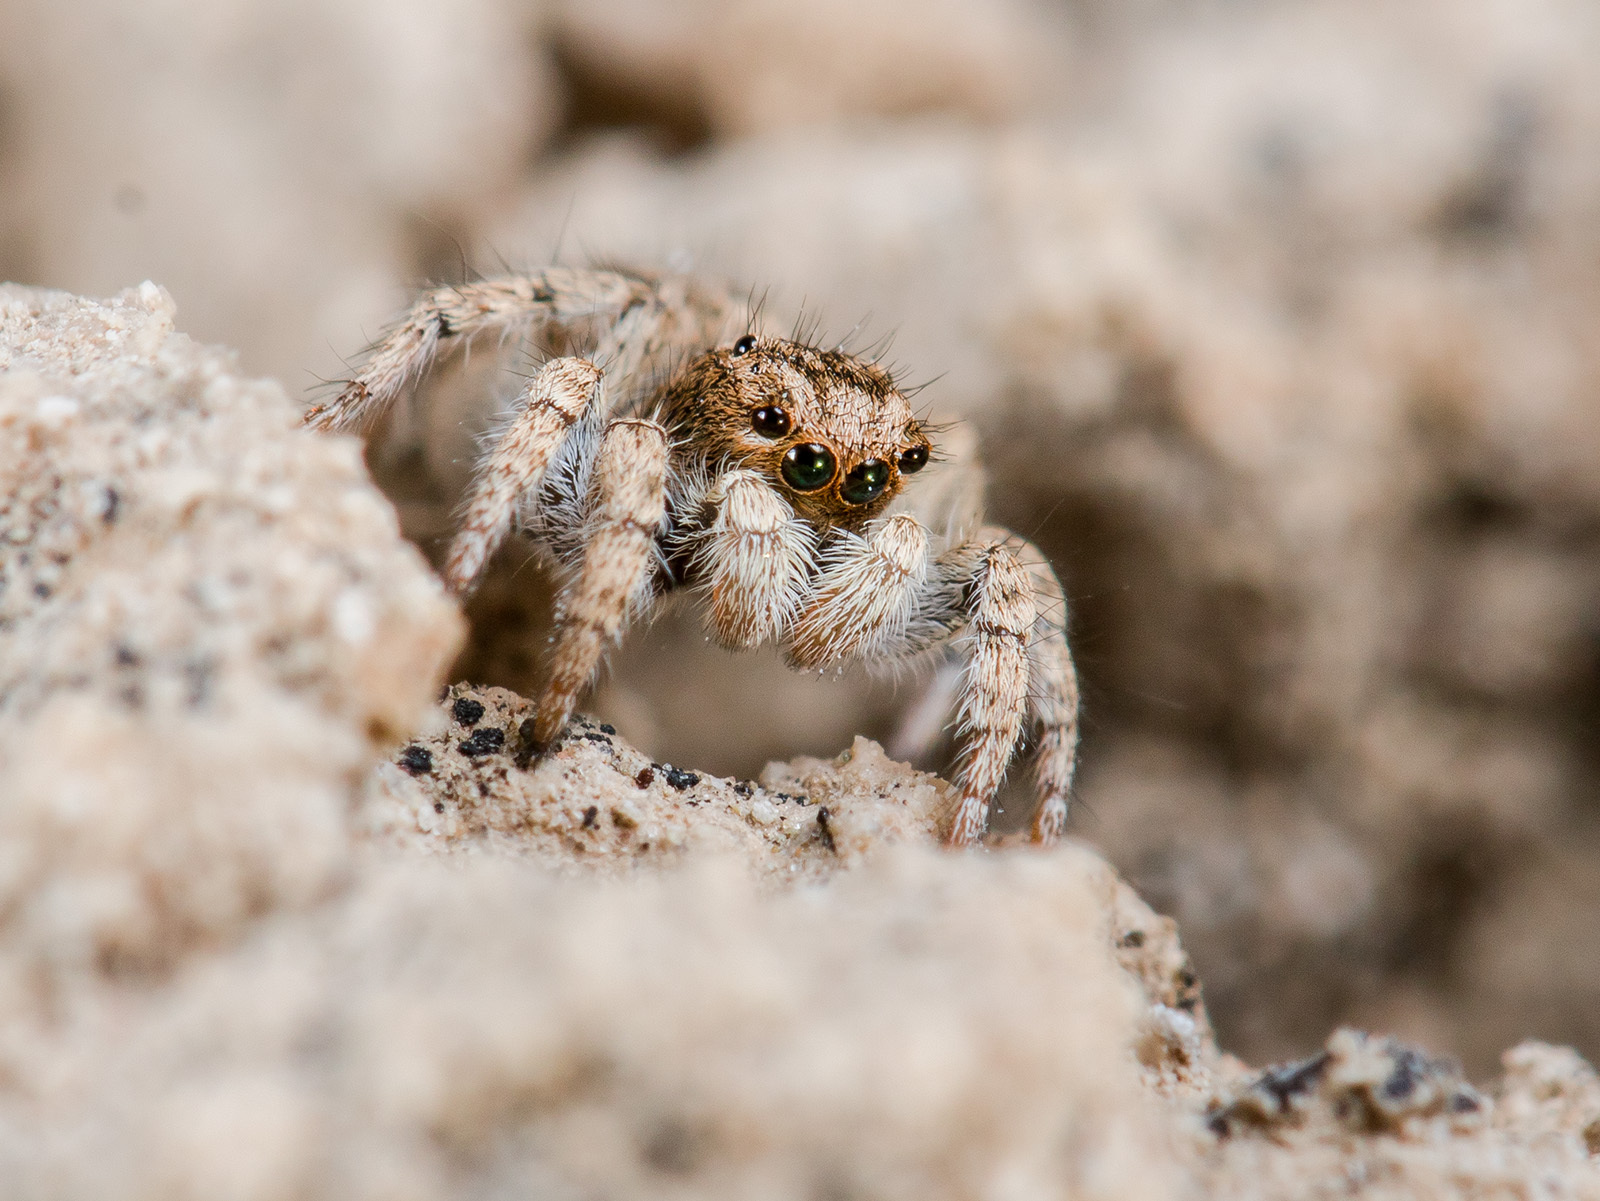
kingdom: Animalia
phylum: Arthropoda
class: Arachnida
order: Araneae
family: Salticidae
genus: Aelurillus
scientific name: Aelurillus concolor
